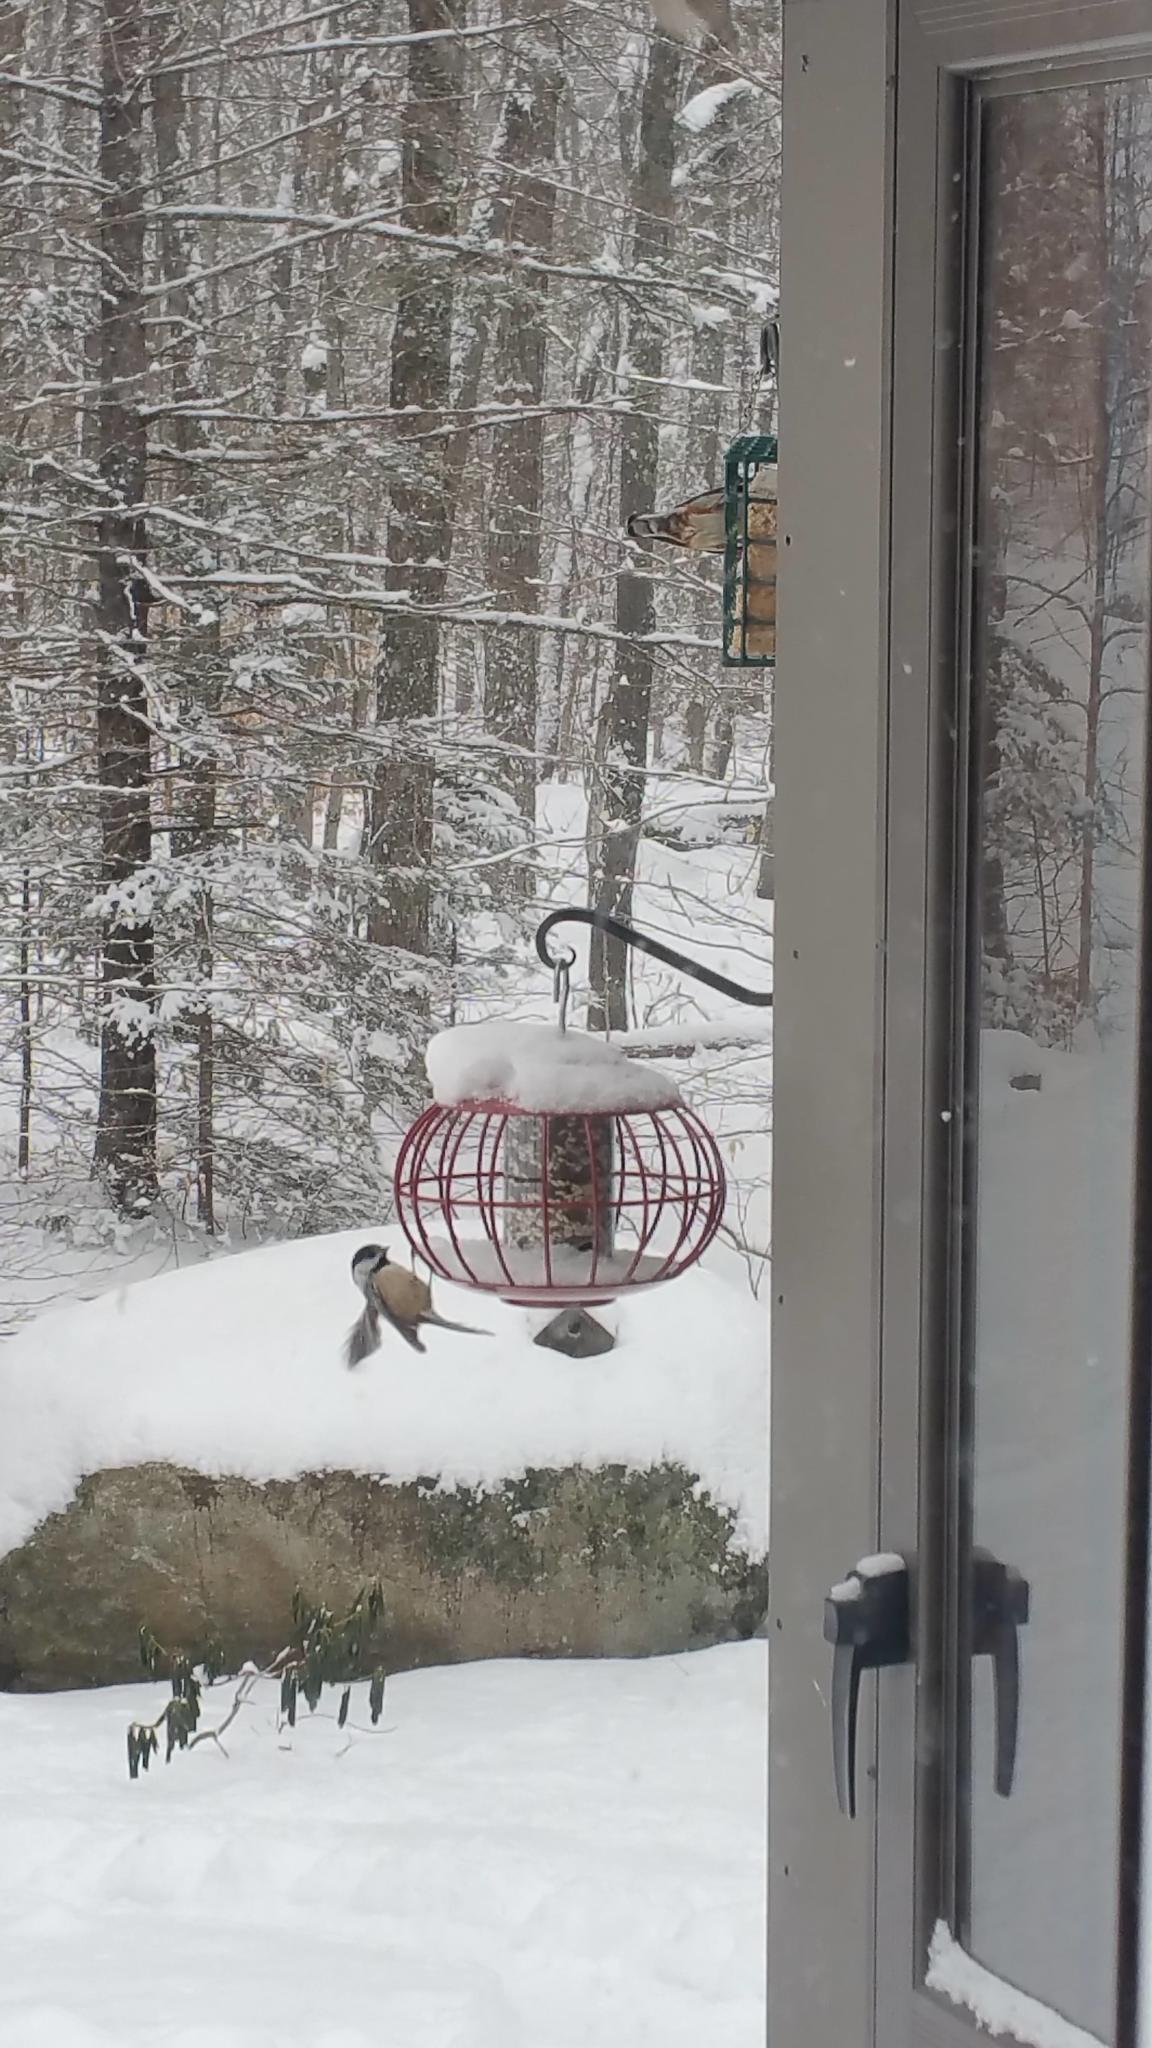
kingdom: Animalia
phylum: Chordata
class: Aves
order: Passeriformes
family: Paridae
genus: Poecile
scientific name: Poecile atricapillus
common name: Black-capped chickadee
